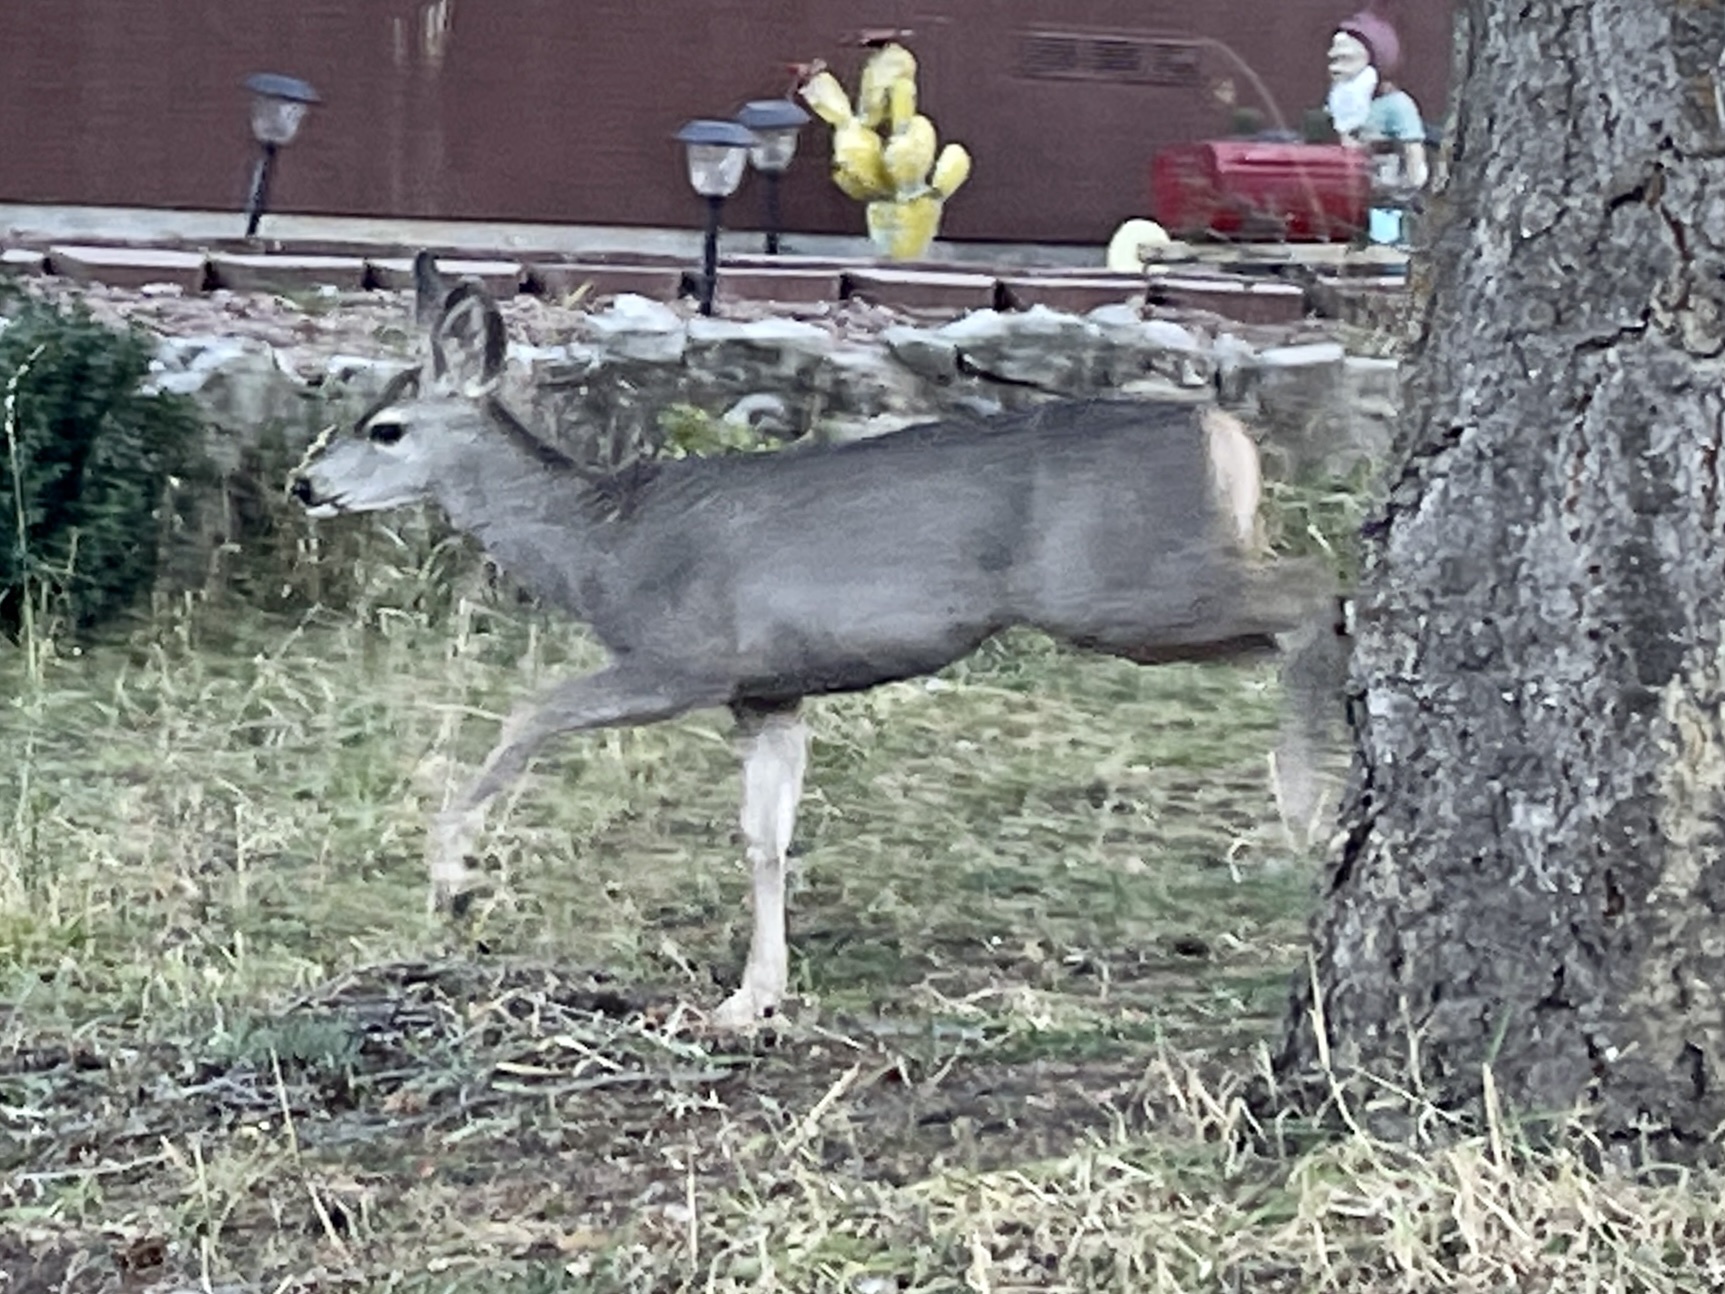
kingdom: Animalia
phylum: Chordata
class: Mammalia
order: Artiodactyla
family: Cervidae
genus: Odocoileus
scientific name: Odocoileus hemionus
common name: Mule deer
